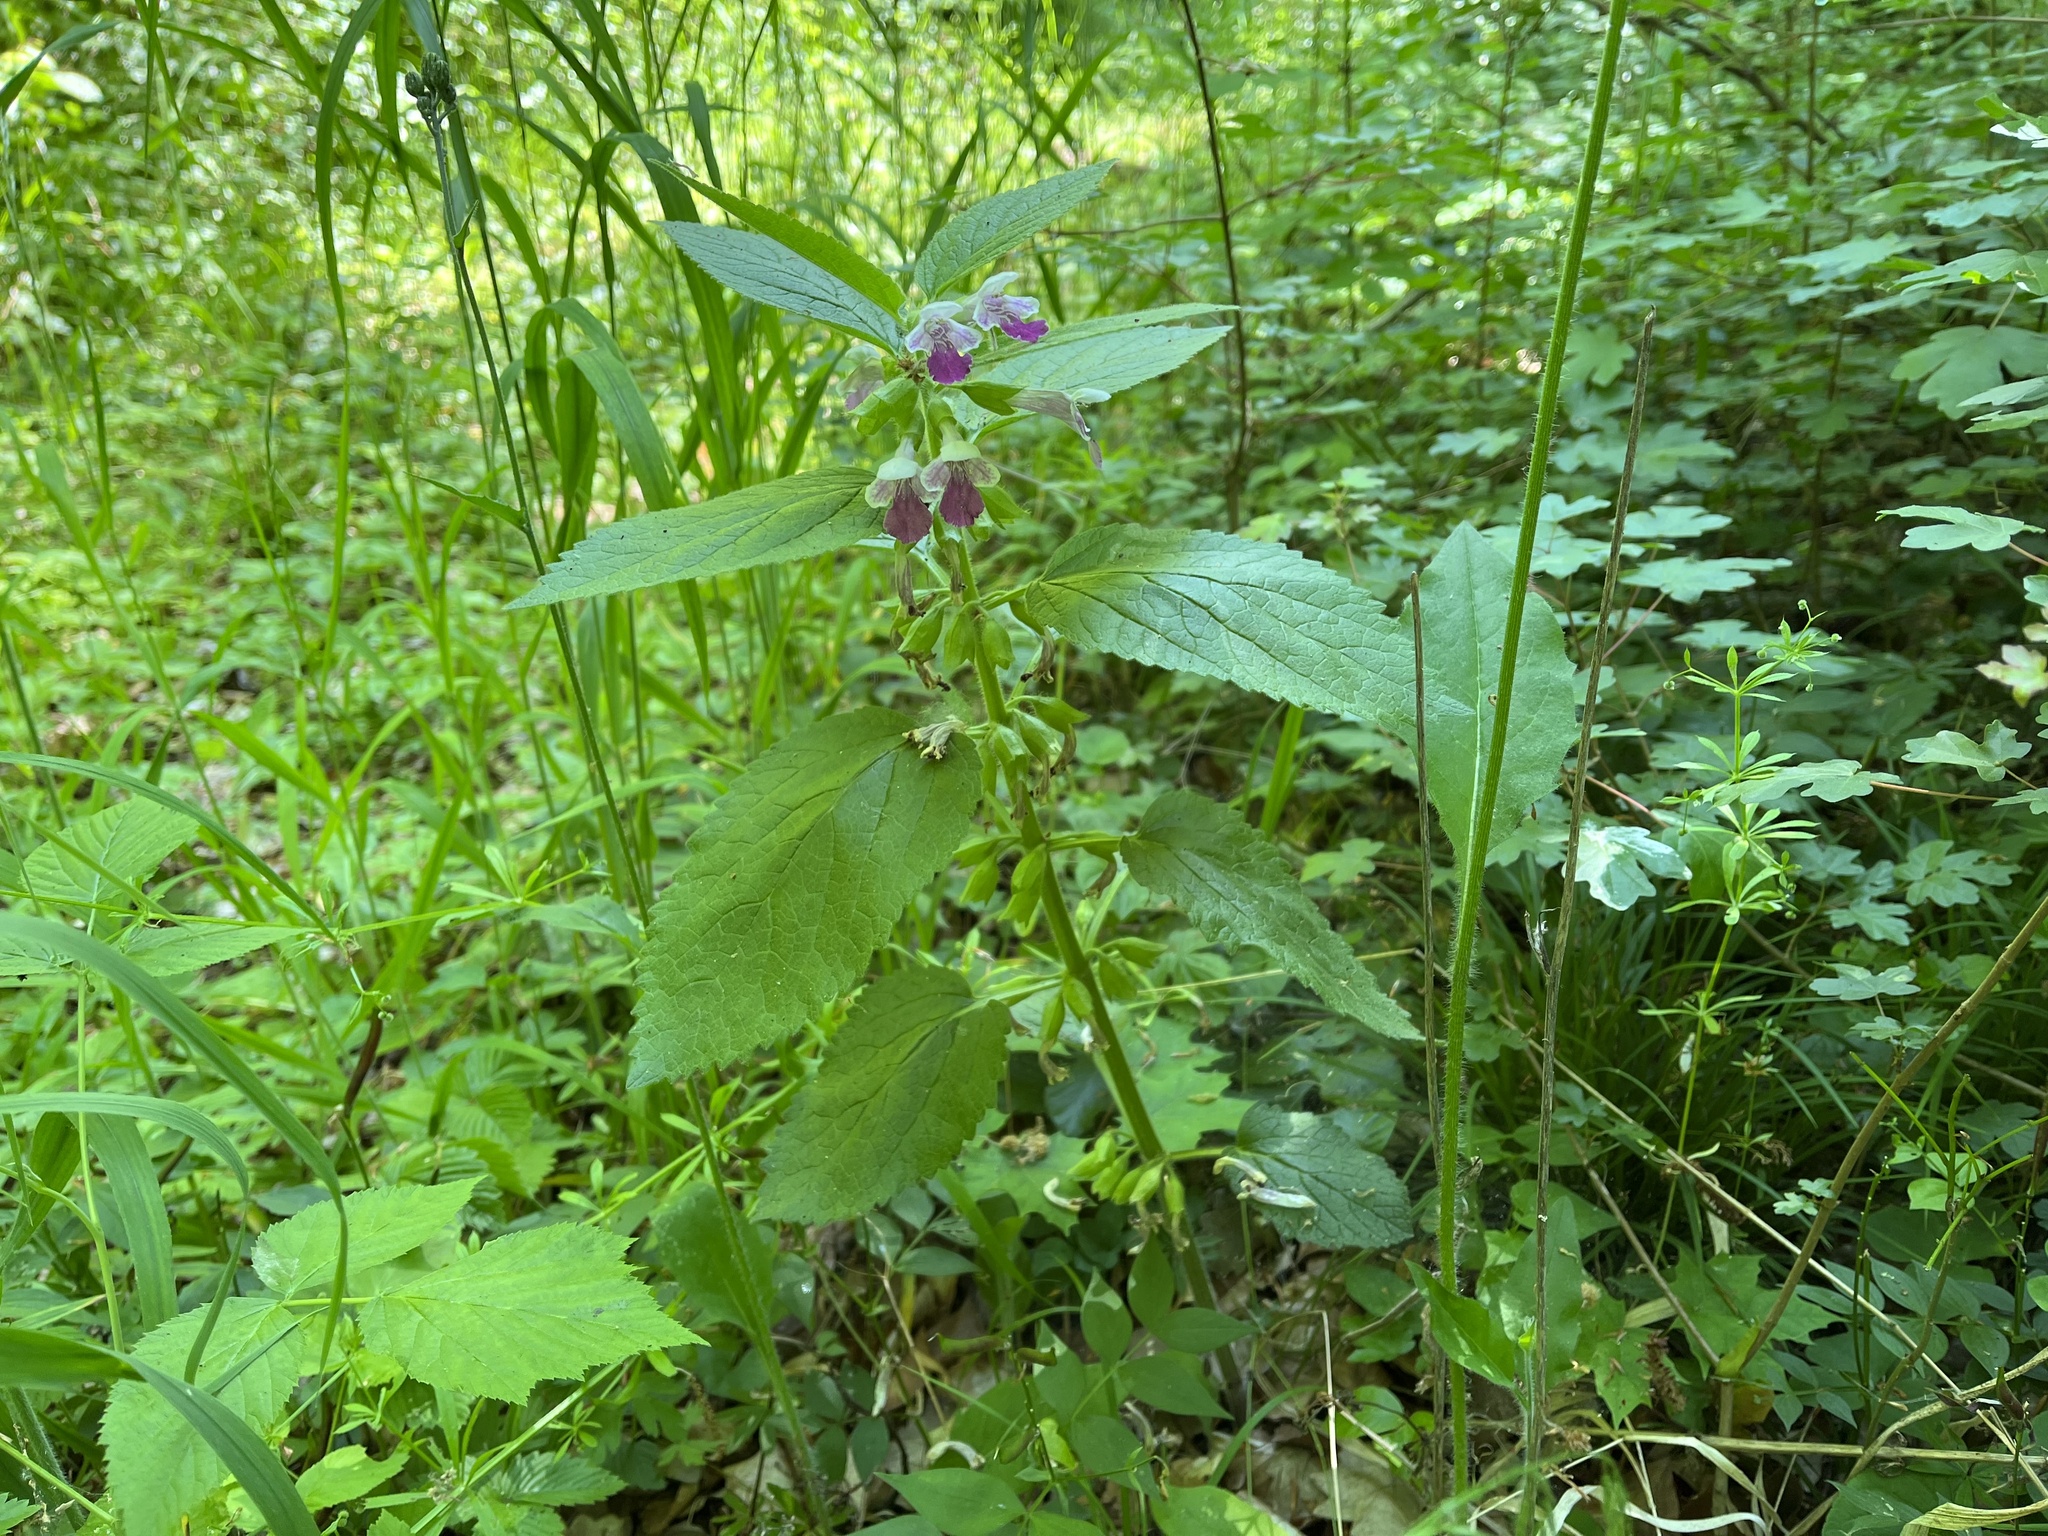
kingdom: Plantae
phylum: Tracheophyta
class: Magnoliopsida
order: Lamiales
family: Lamiaceae
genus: Melittis
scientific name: Melittis melissophyllum
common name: Bastard balm
